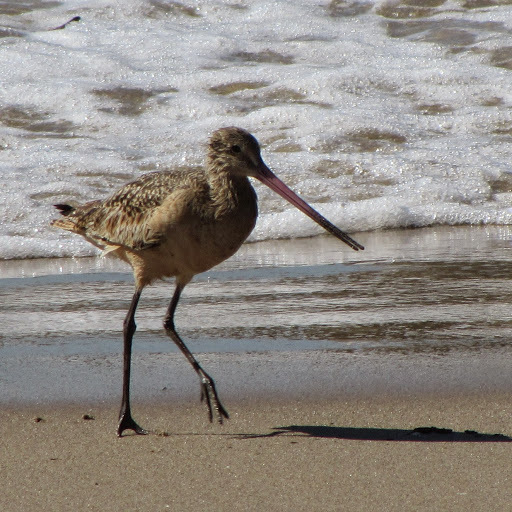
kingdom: Animalia
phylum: Chordata
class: Aves
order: Charadriiformes
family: Scolopacidae
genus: Limosa
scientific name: Limosa fedoa
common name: Marbled godwit
